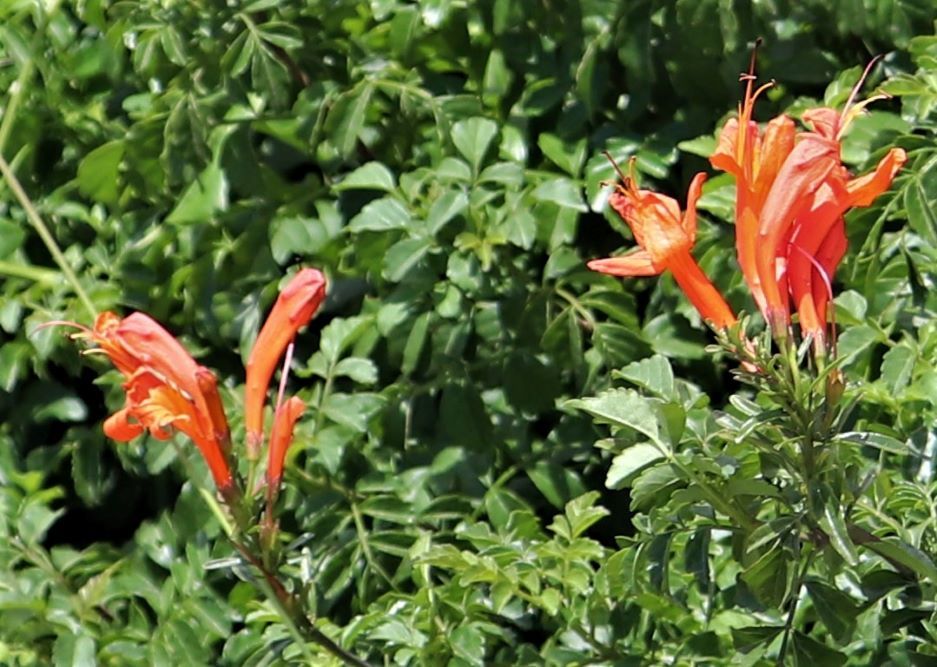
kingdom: Plantae
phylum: Tracheophyta
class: Magnoliopsida
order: Lamiales
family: Bignoniaceae
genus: Tecomaria
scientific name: Tecomaria capensis
